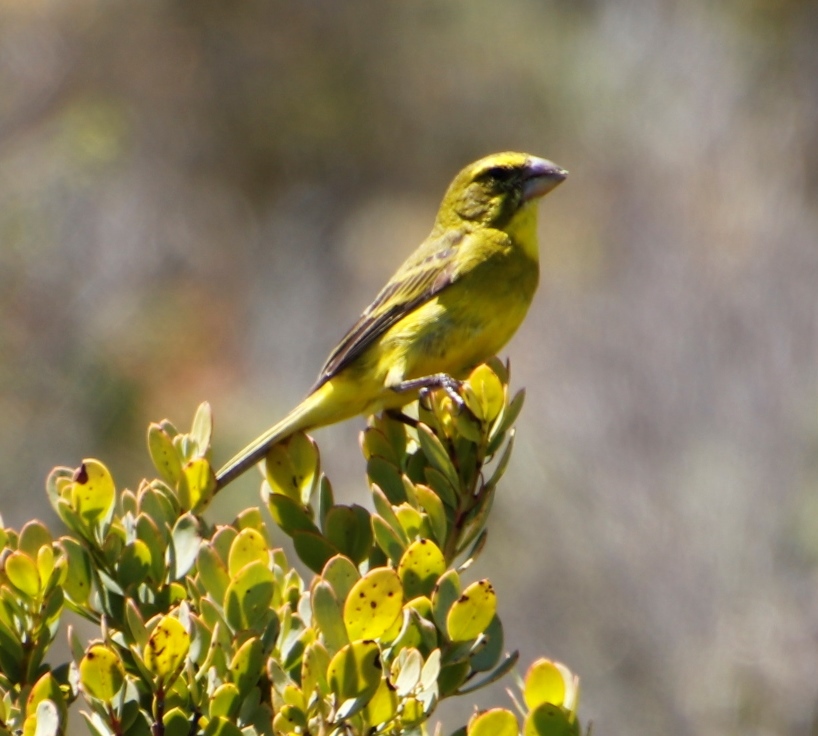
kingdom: Animalia
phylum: Chordata
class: Aves
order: Passeriformes
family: Fringillidae
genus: Crithagra
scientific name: Crithagra sulphurata
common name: Brimstone canary
